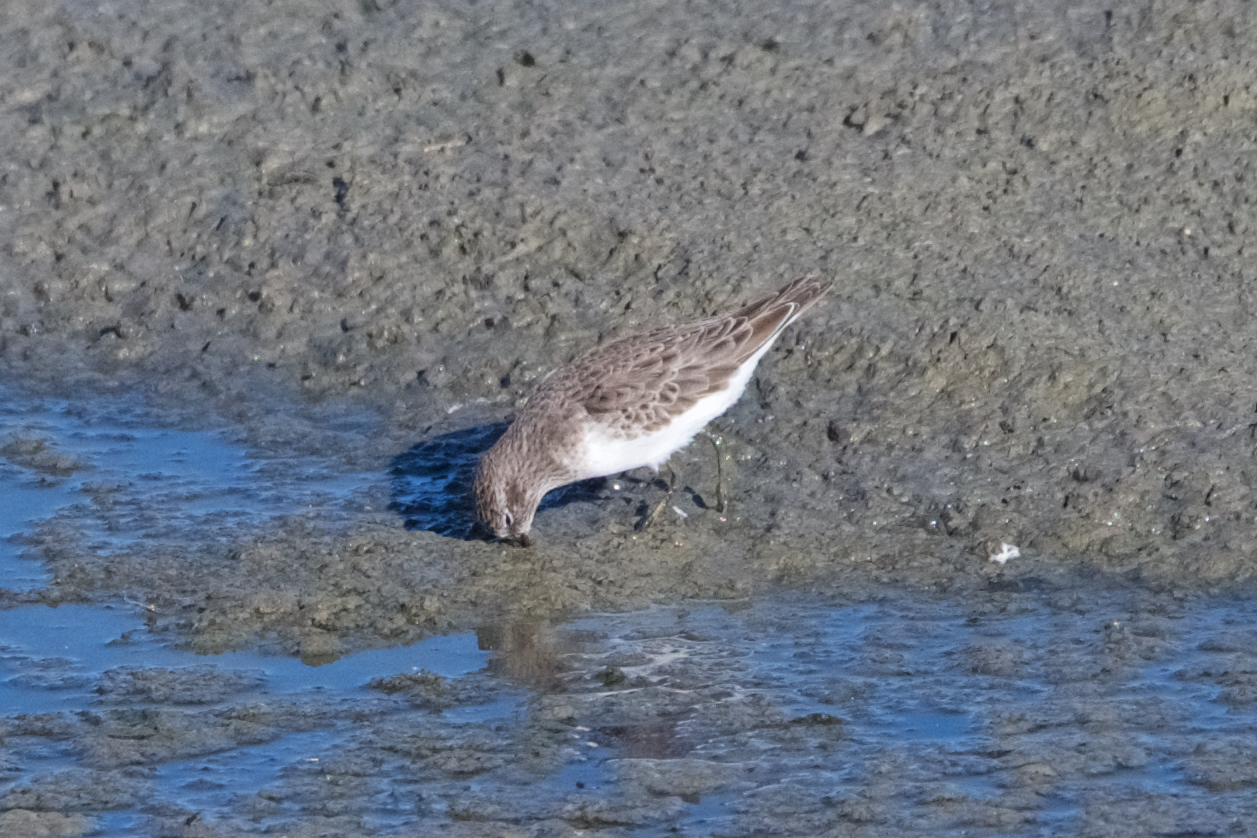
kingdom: Animalia
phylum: Chordata
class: Aves
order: Charadriiformes
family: Scolopacidae
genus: Calidris
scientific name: Calidris minutilla
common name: Least sandpiper
